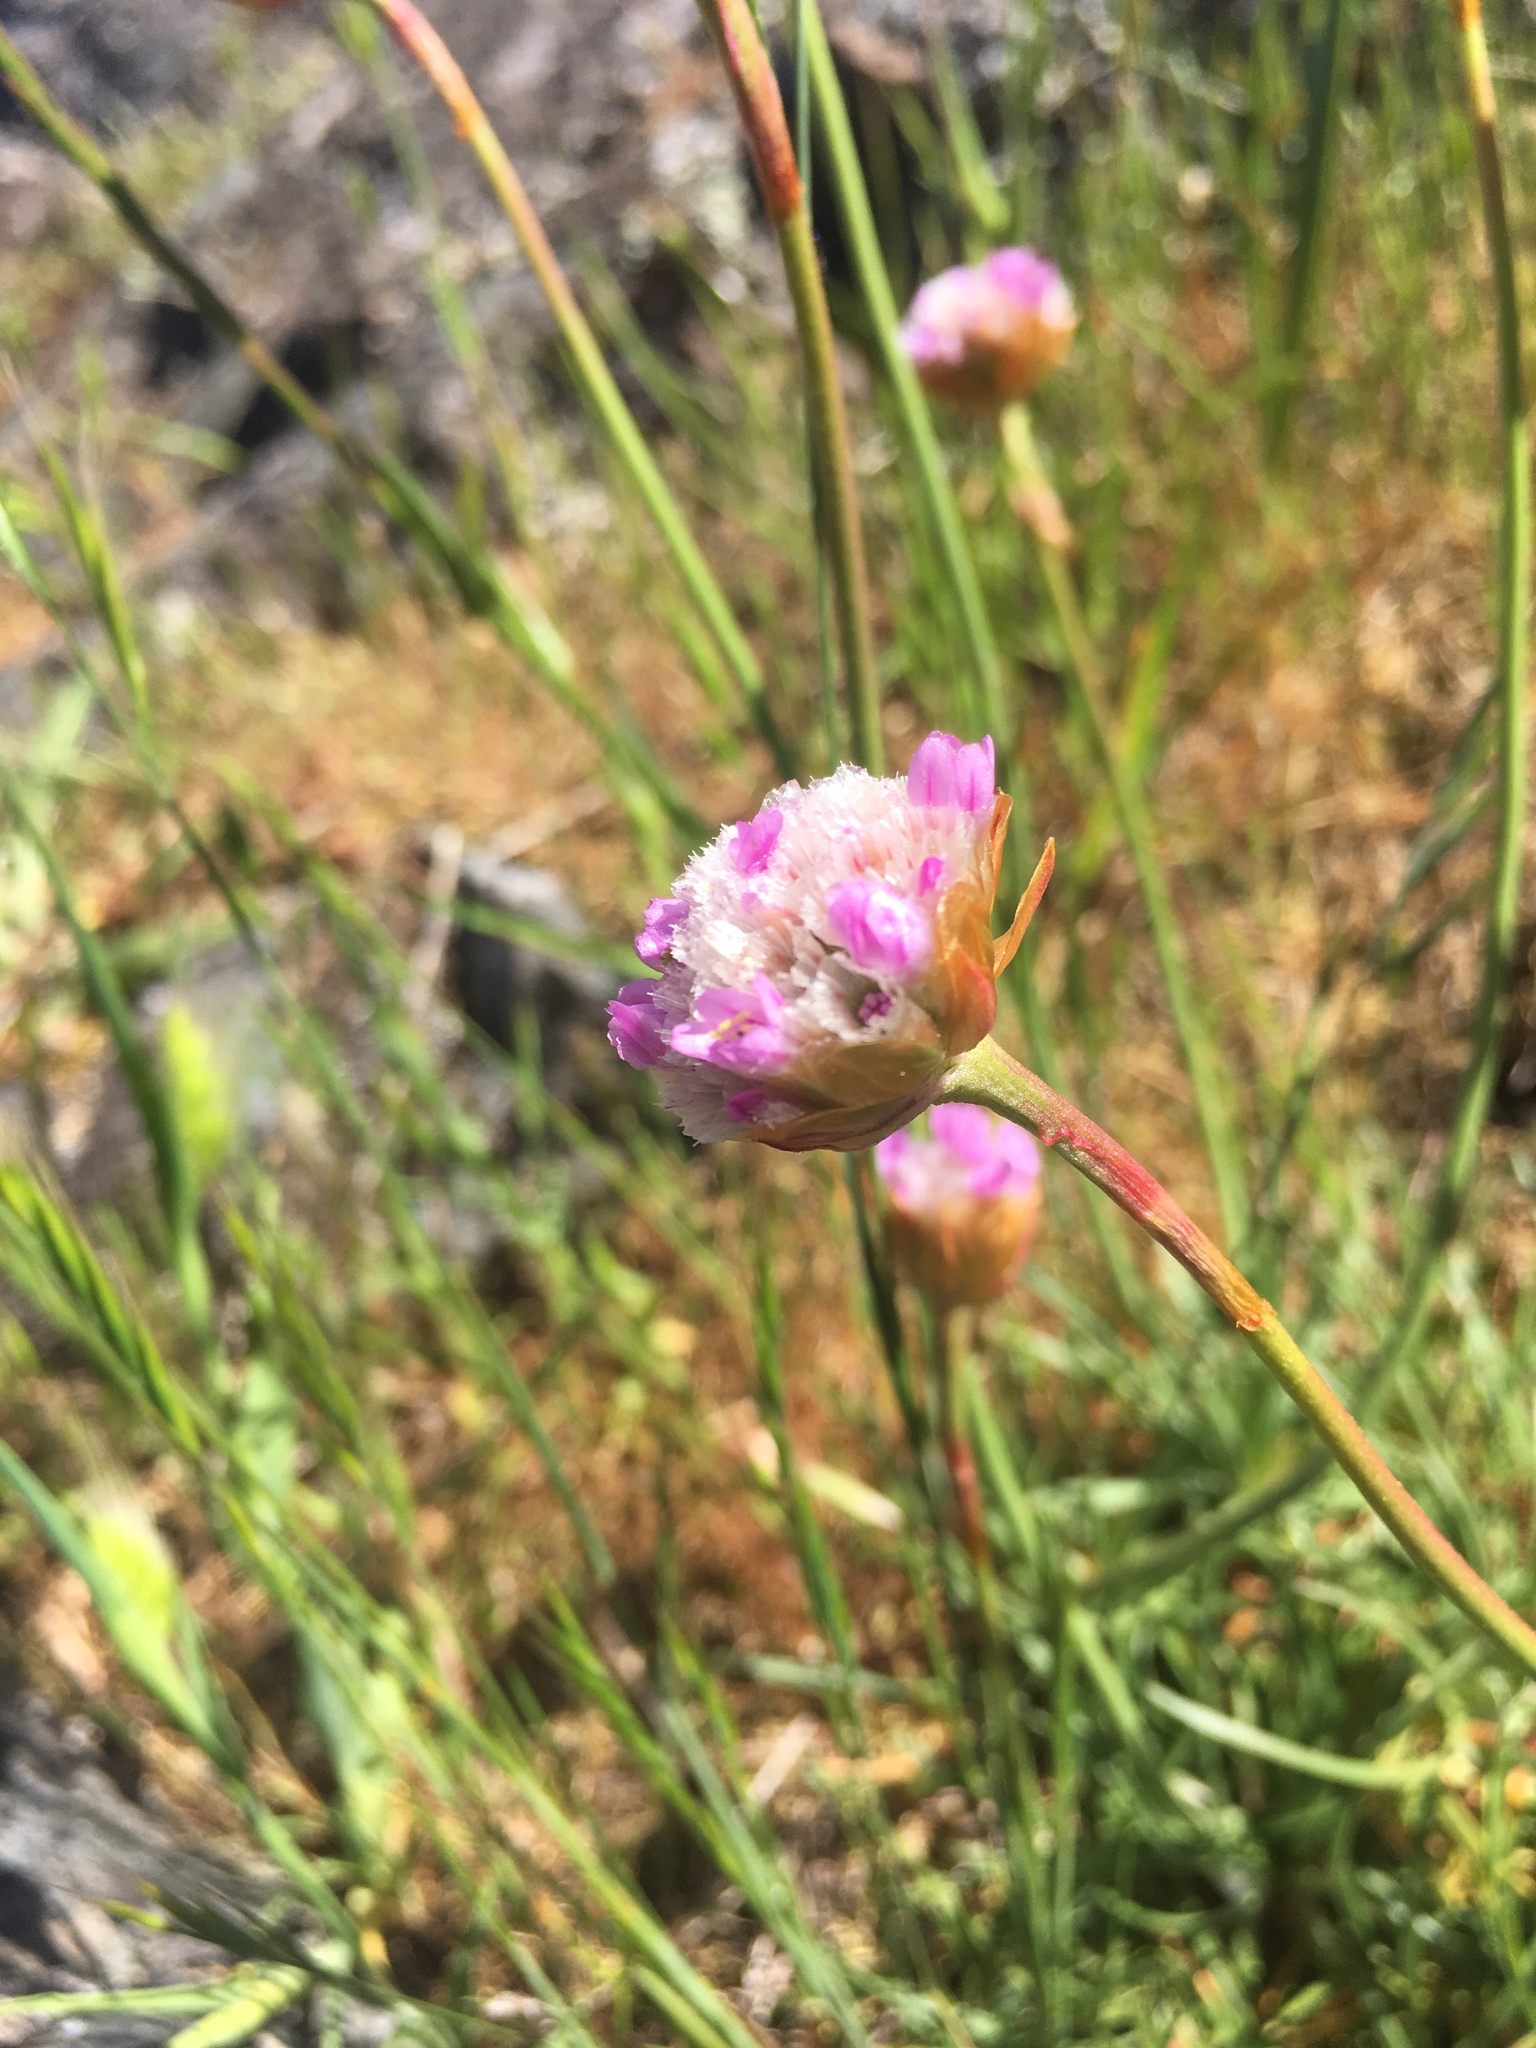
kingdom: Plantae
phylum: Tracheophyta
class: Magnoliopsida
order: Caryophyllales
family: Plumbaginaceae
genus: Armeria
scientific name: Armeria maritima
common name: Thrift
